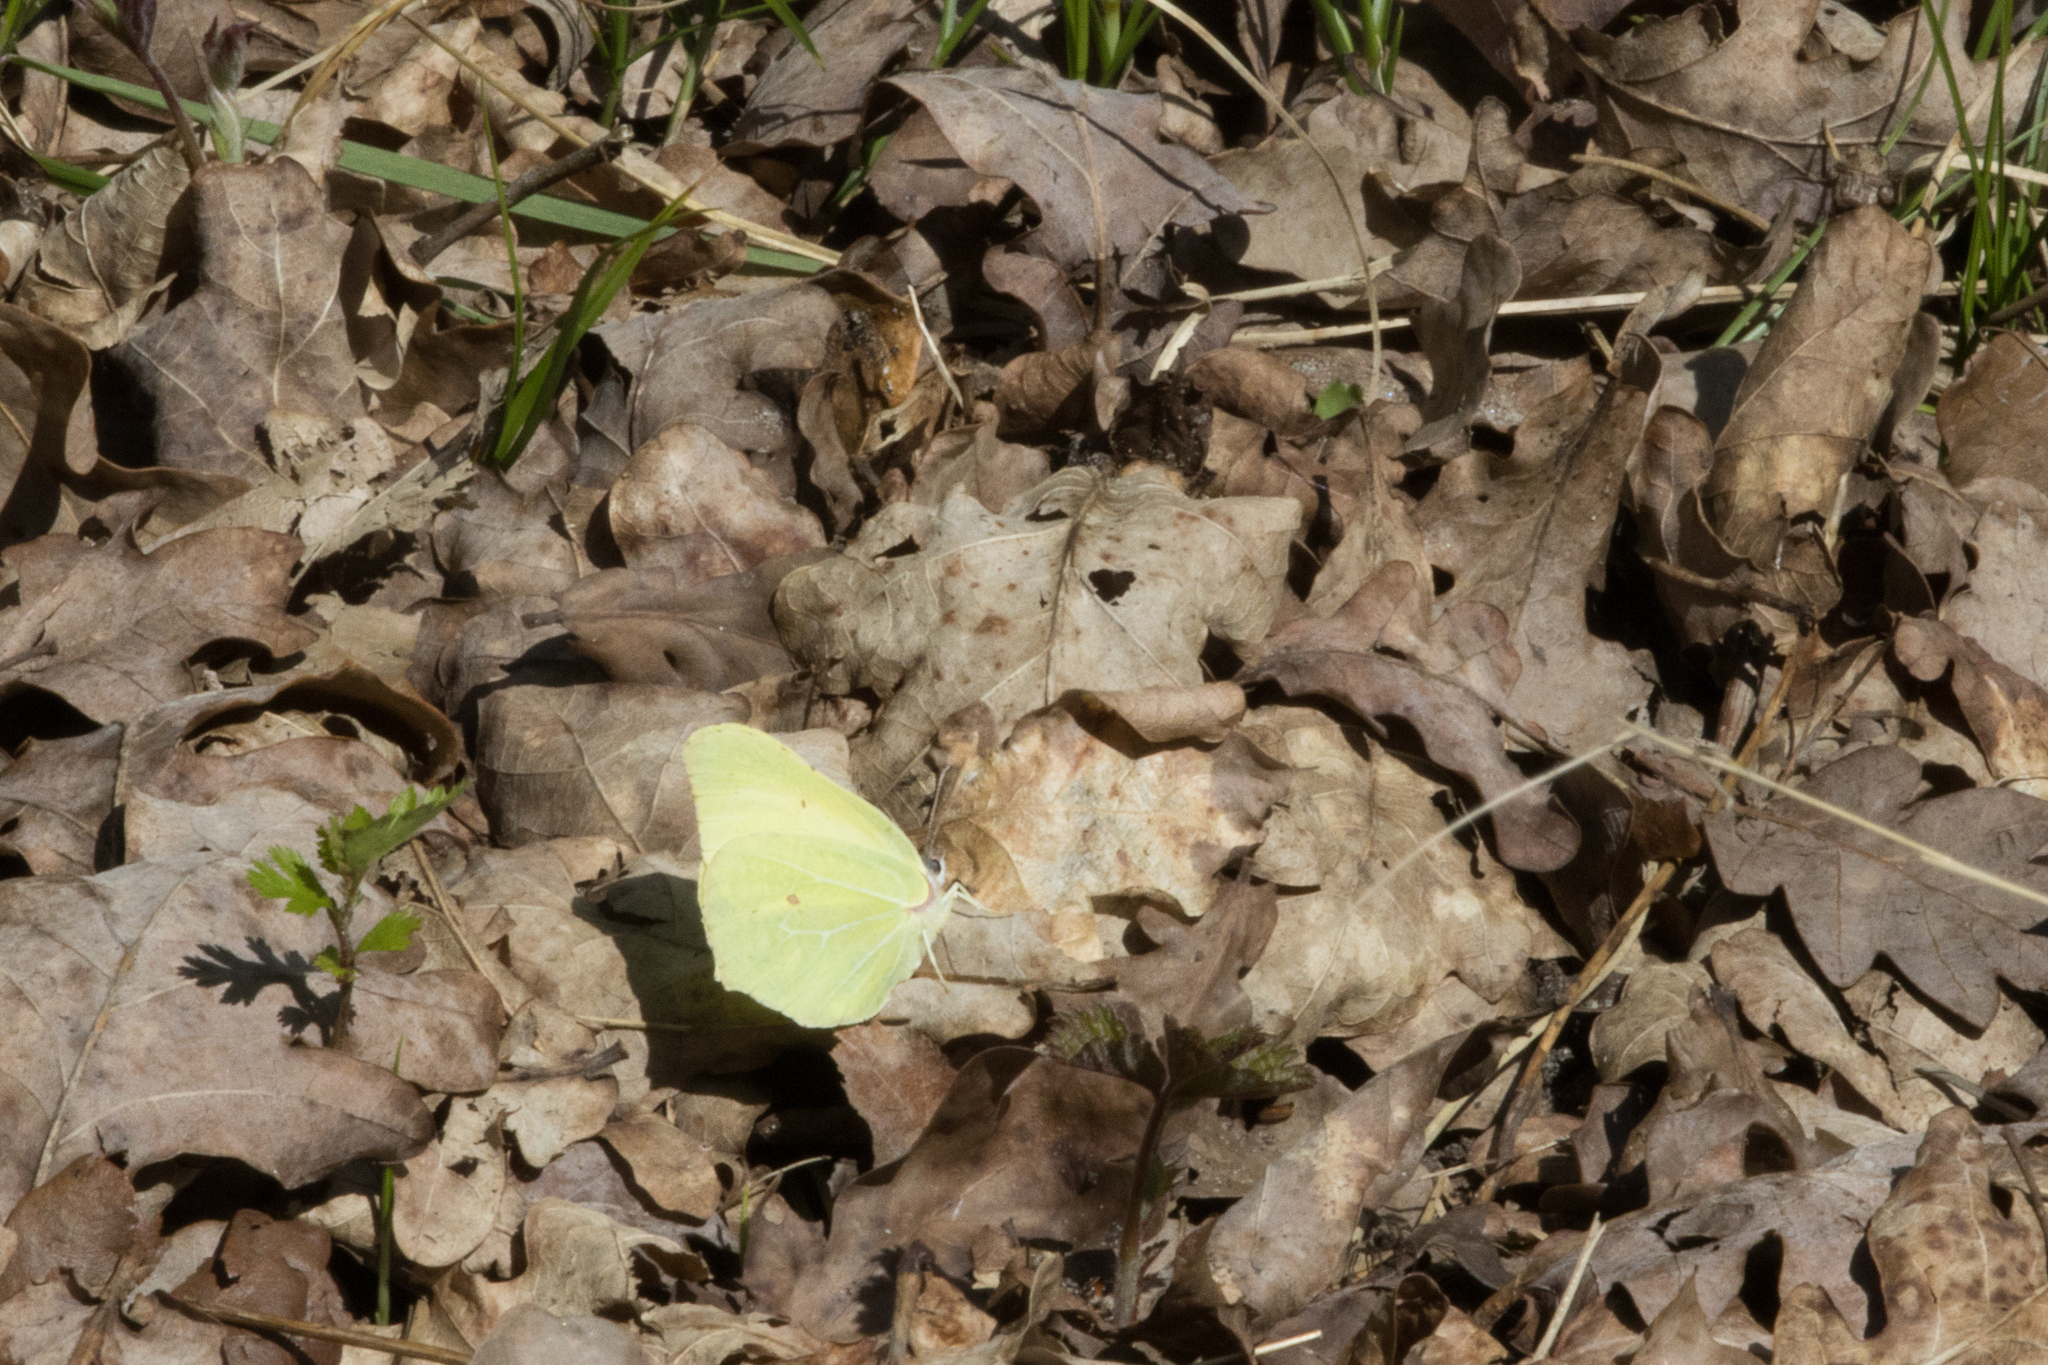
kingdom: Animalia
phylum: Arthropoda
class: Insecta
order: Lepidoptera
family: Pieridae
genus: Gonepteryx
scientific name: Gonepteryx rhamni
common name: Brimstone
